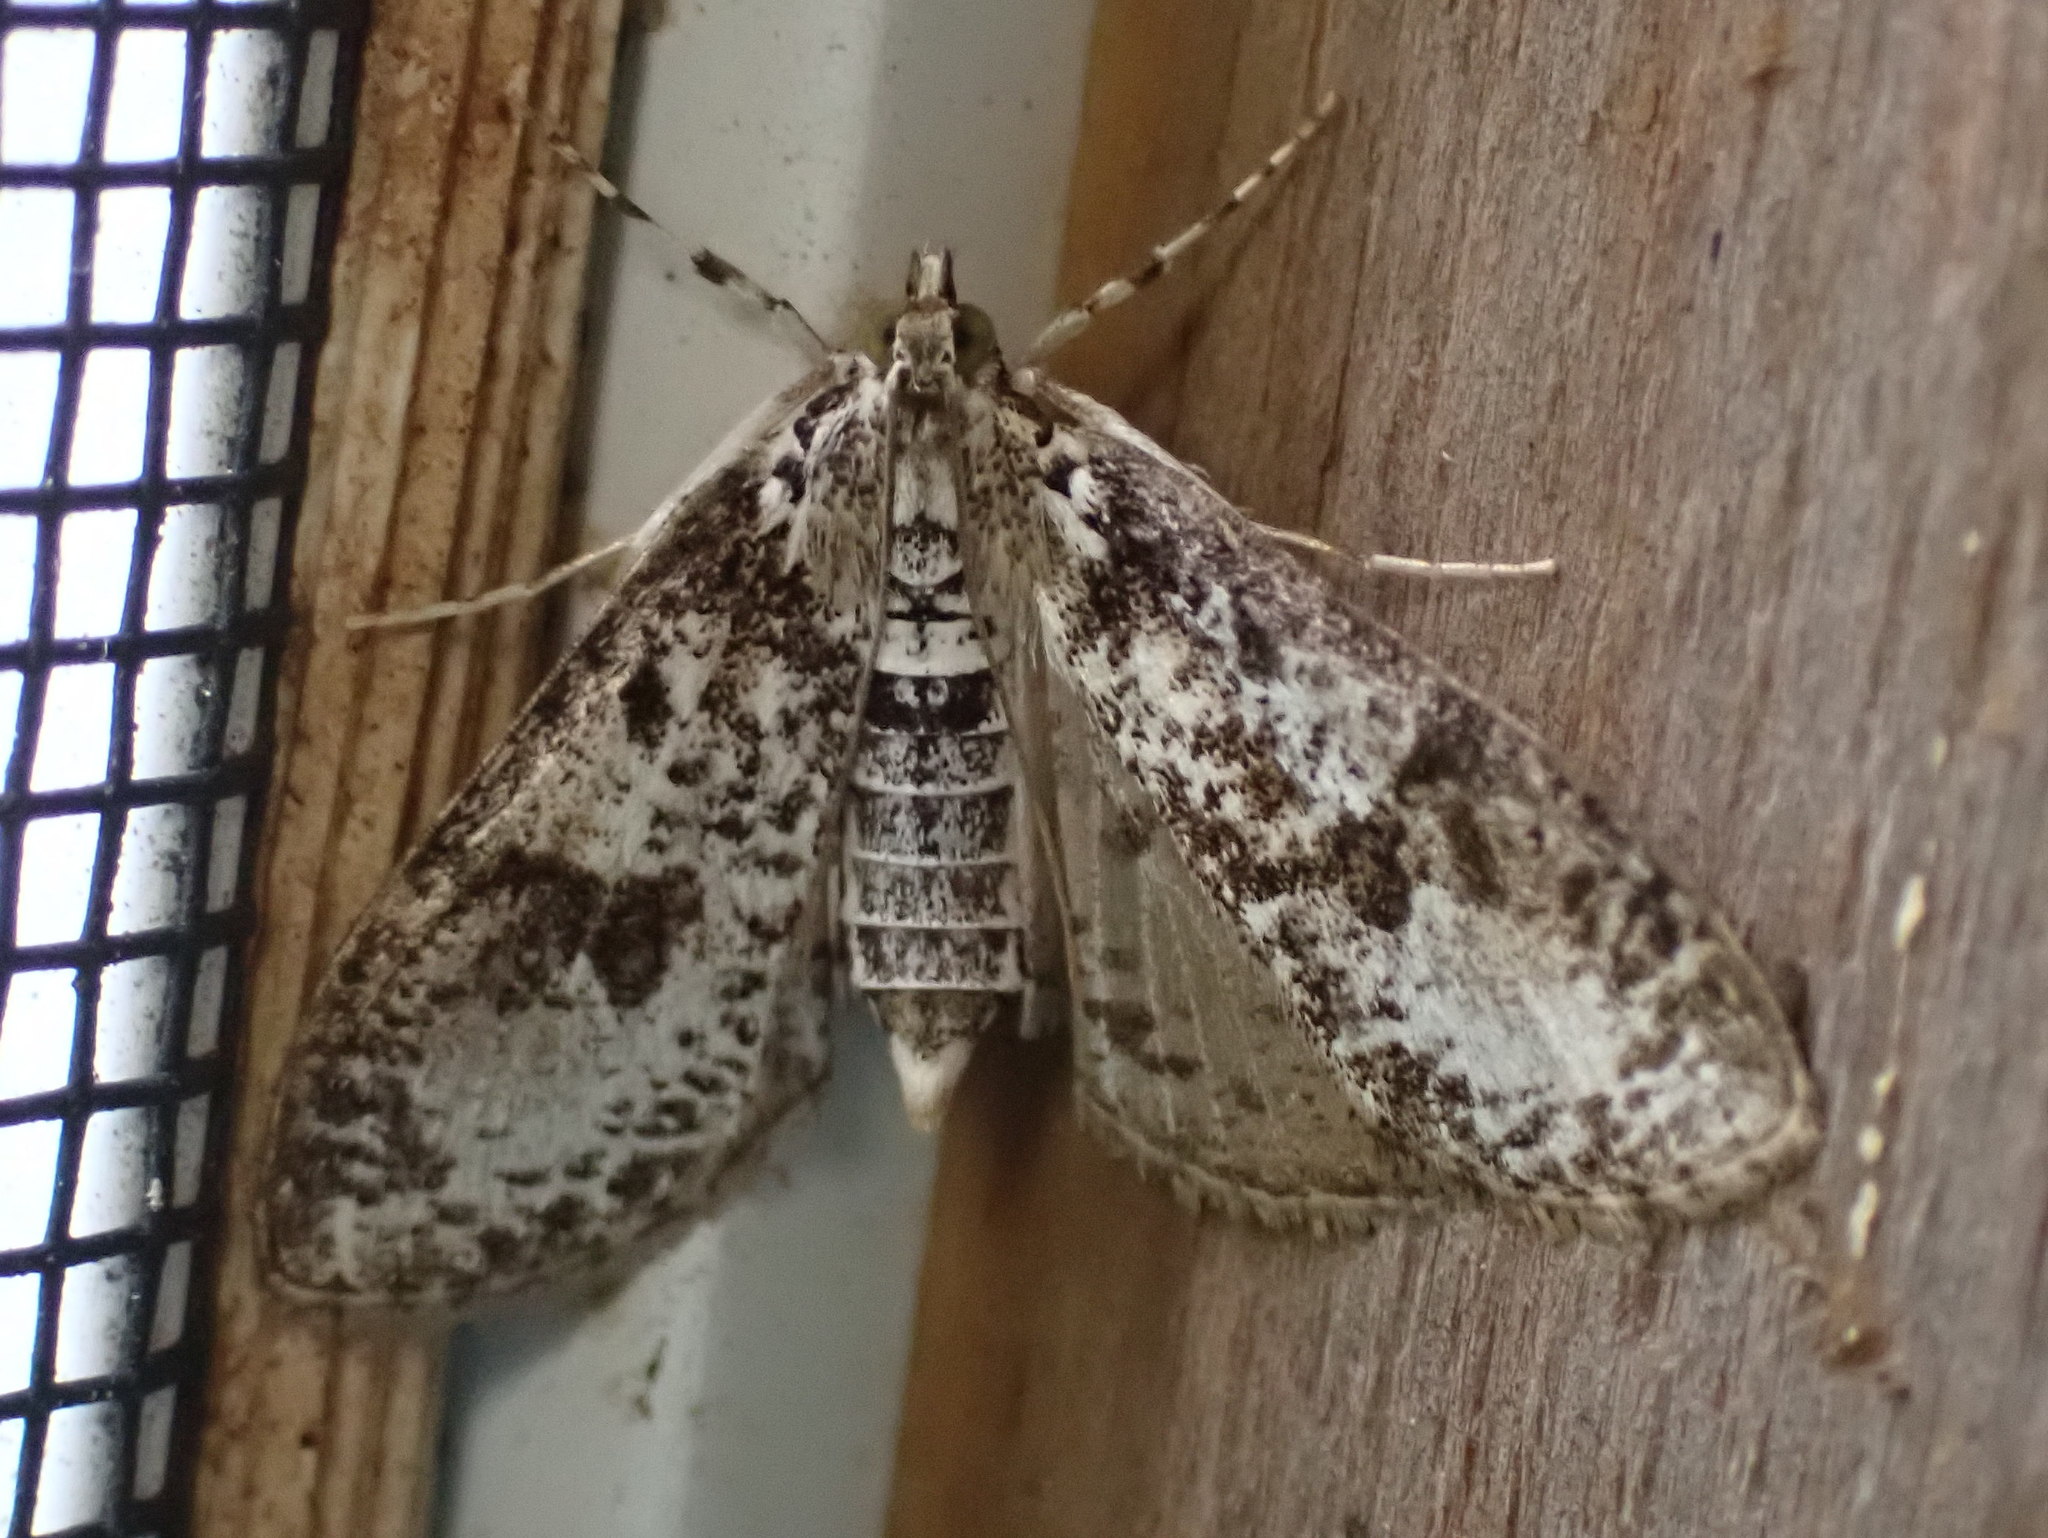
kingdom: Animalia
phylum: Arthropoda
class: Insecta
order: Lepidoptera
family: Crambidae
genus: Palpita
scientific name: Palpita magniferalis
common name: Splendid palpita moth
